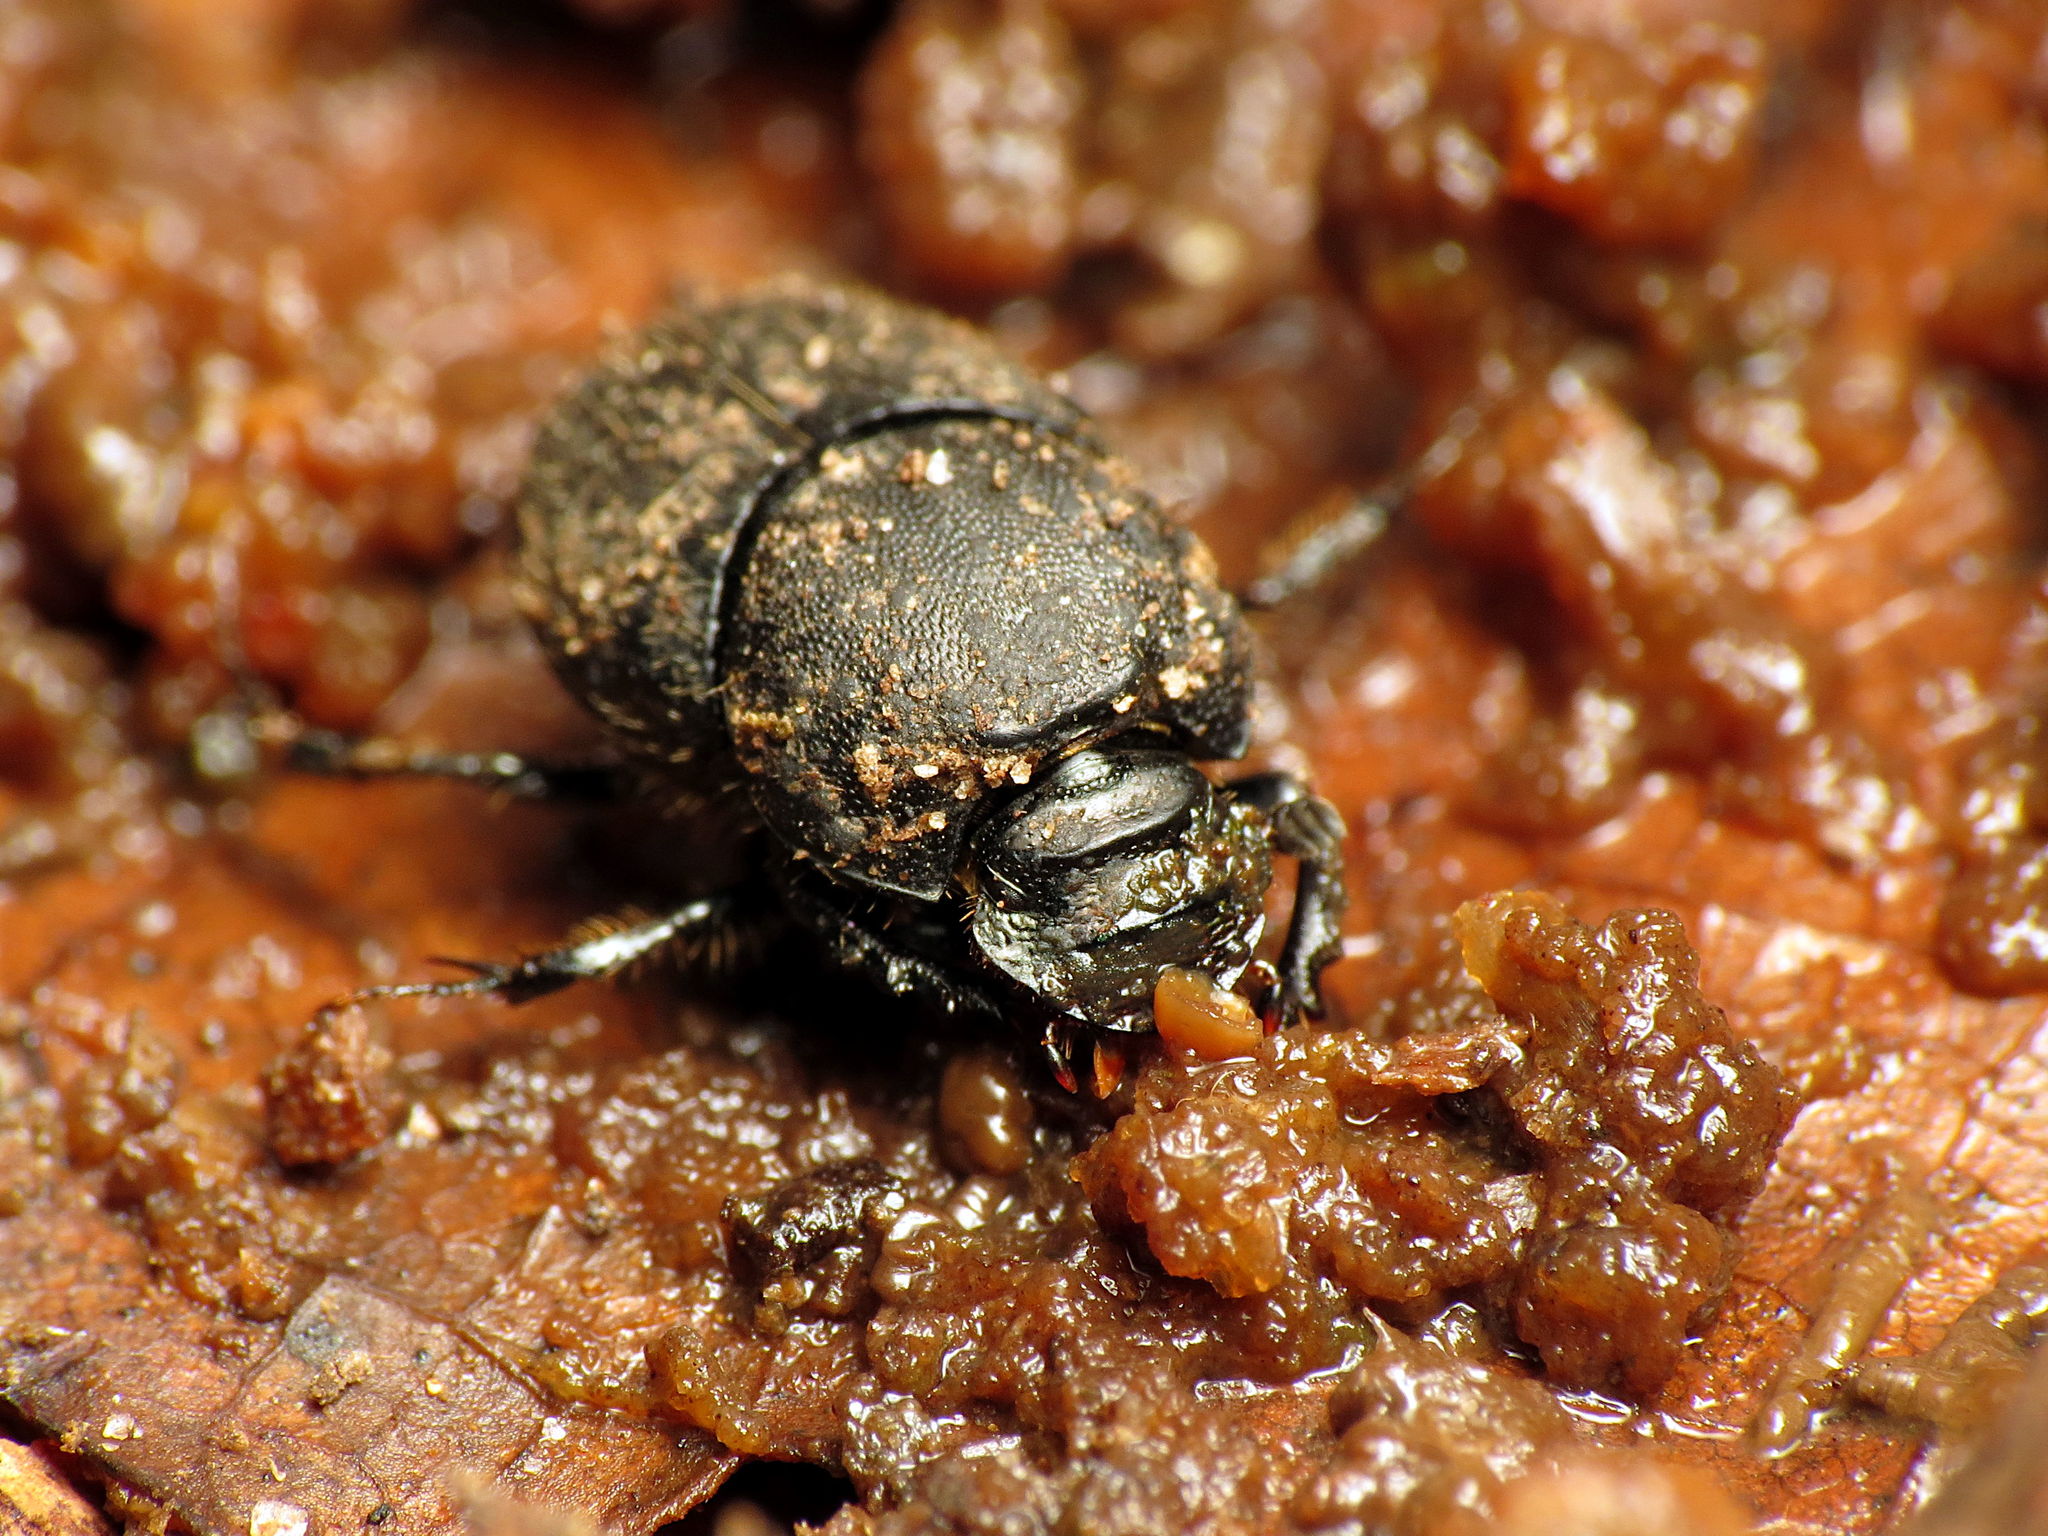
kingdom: Animalia
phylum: Arthropoda
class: Insecta
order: Coleoptera
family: Scarabaeidae
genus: Onthophagus
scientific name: Onthophagus hecate
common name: Scooped scarab
